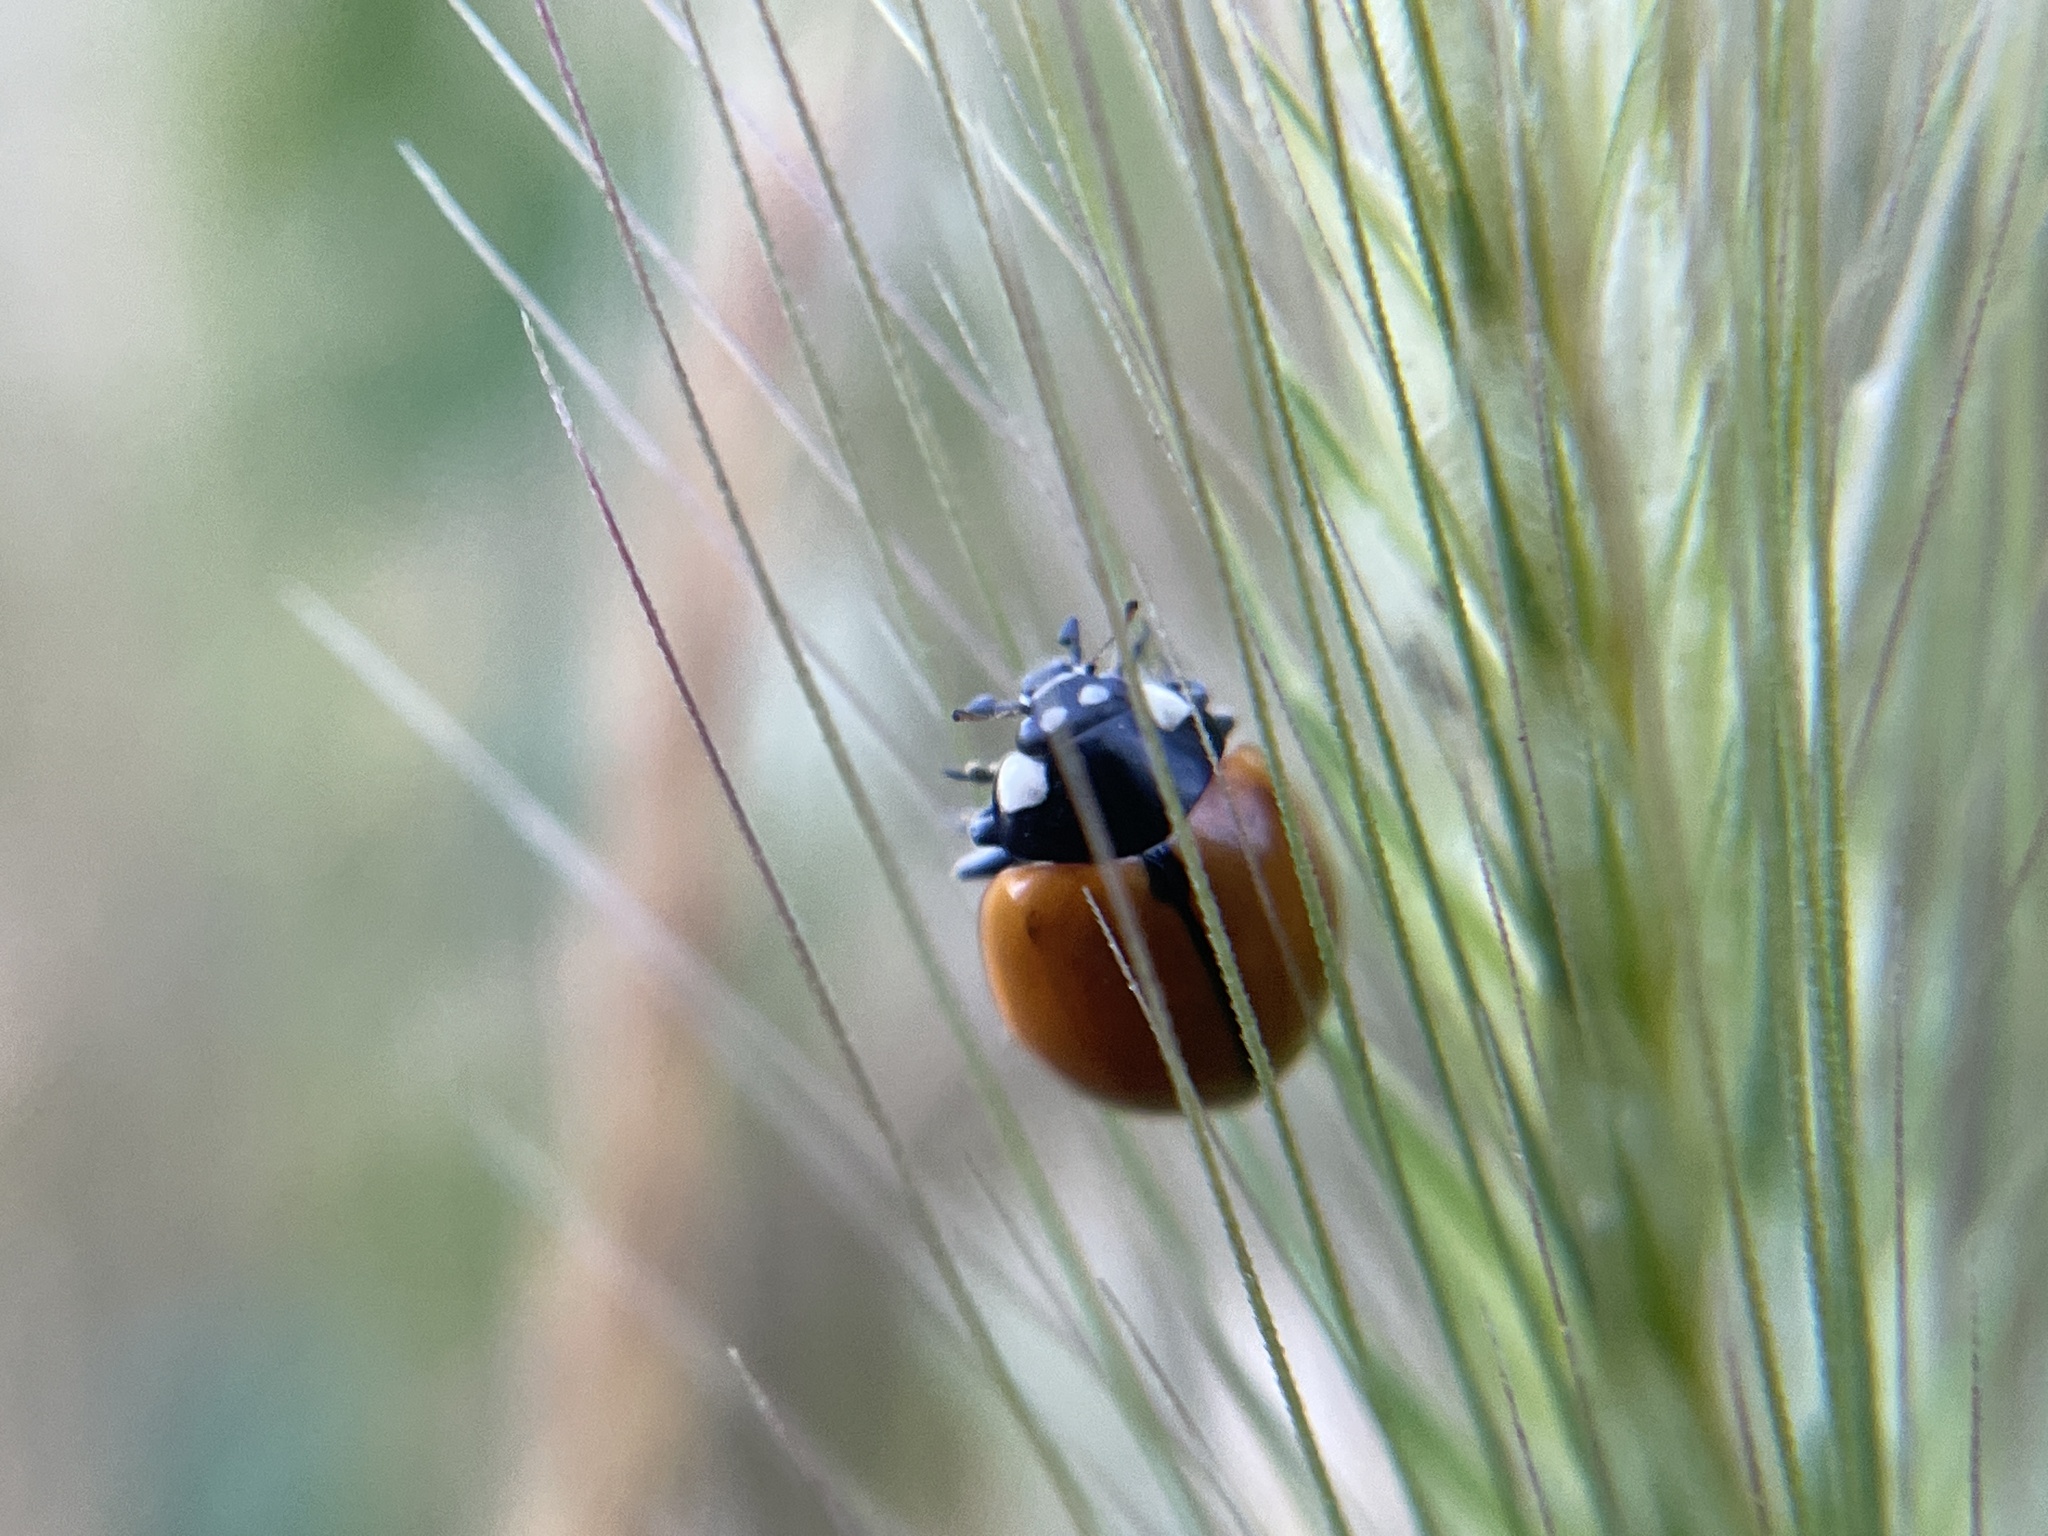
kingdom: Animalia
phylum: Arthropoda
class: Insecta
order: Coleoptera
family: Coccinellidae
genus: Coccinella
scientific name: Coccinella californica
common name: Lady beetle
